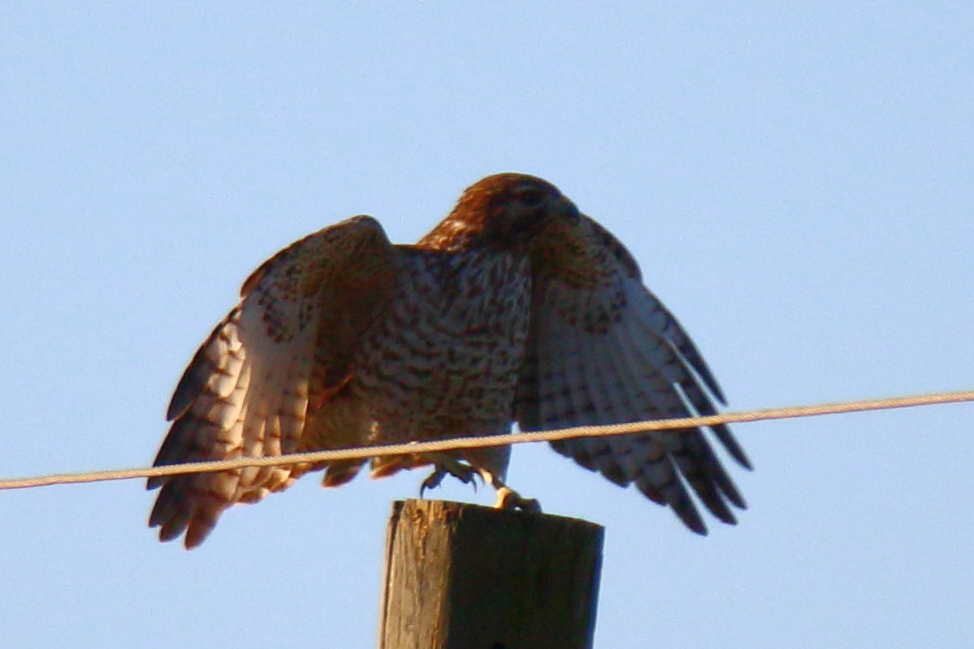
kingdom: Animalia
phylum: Chordata
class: Aves
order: Accipitriformes
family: Accipitridae
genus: Buteo
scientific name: Buteo lineatus
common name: Red-shouldered hawk
